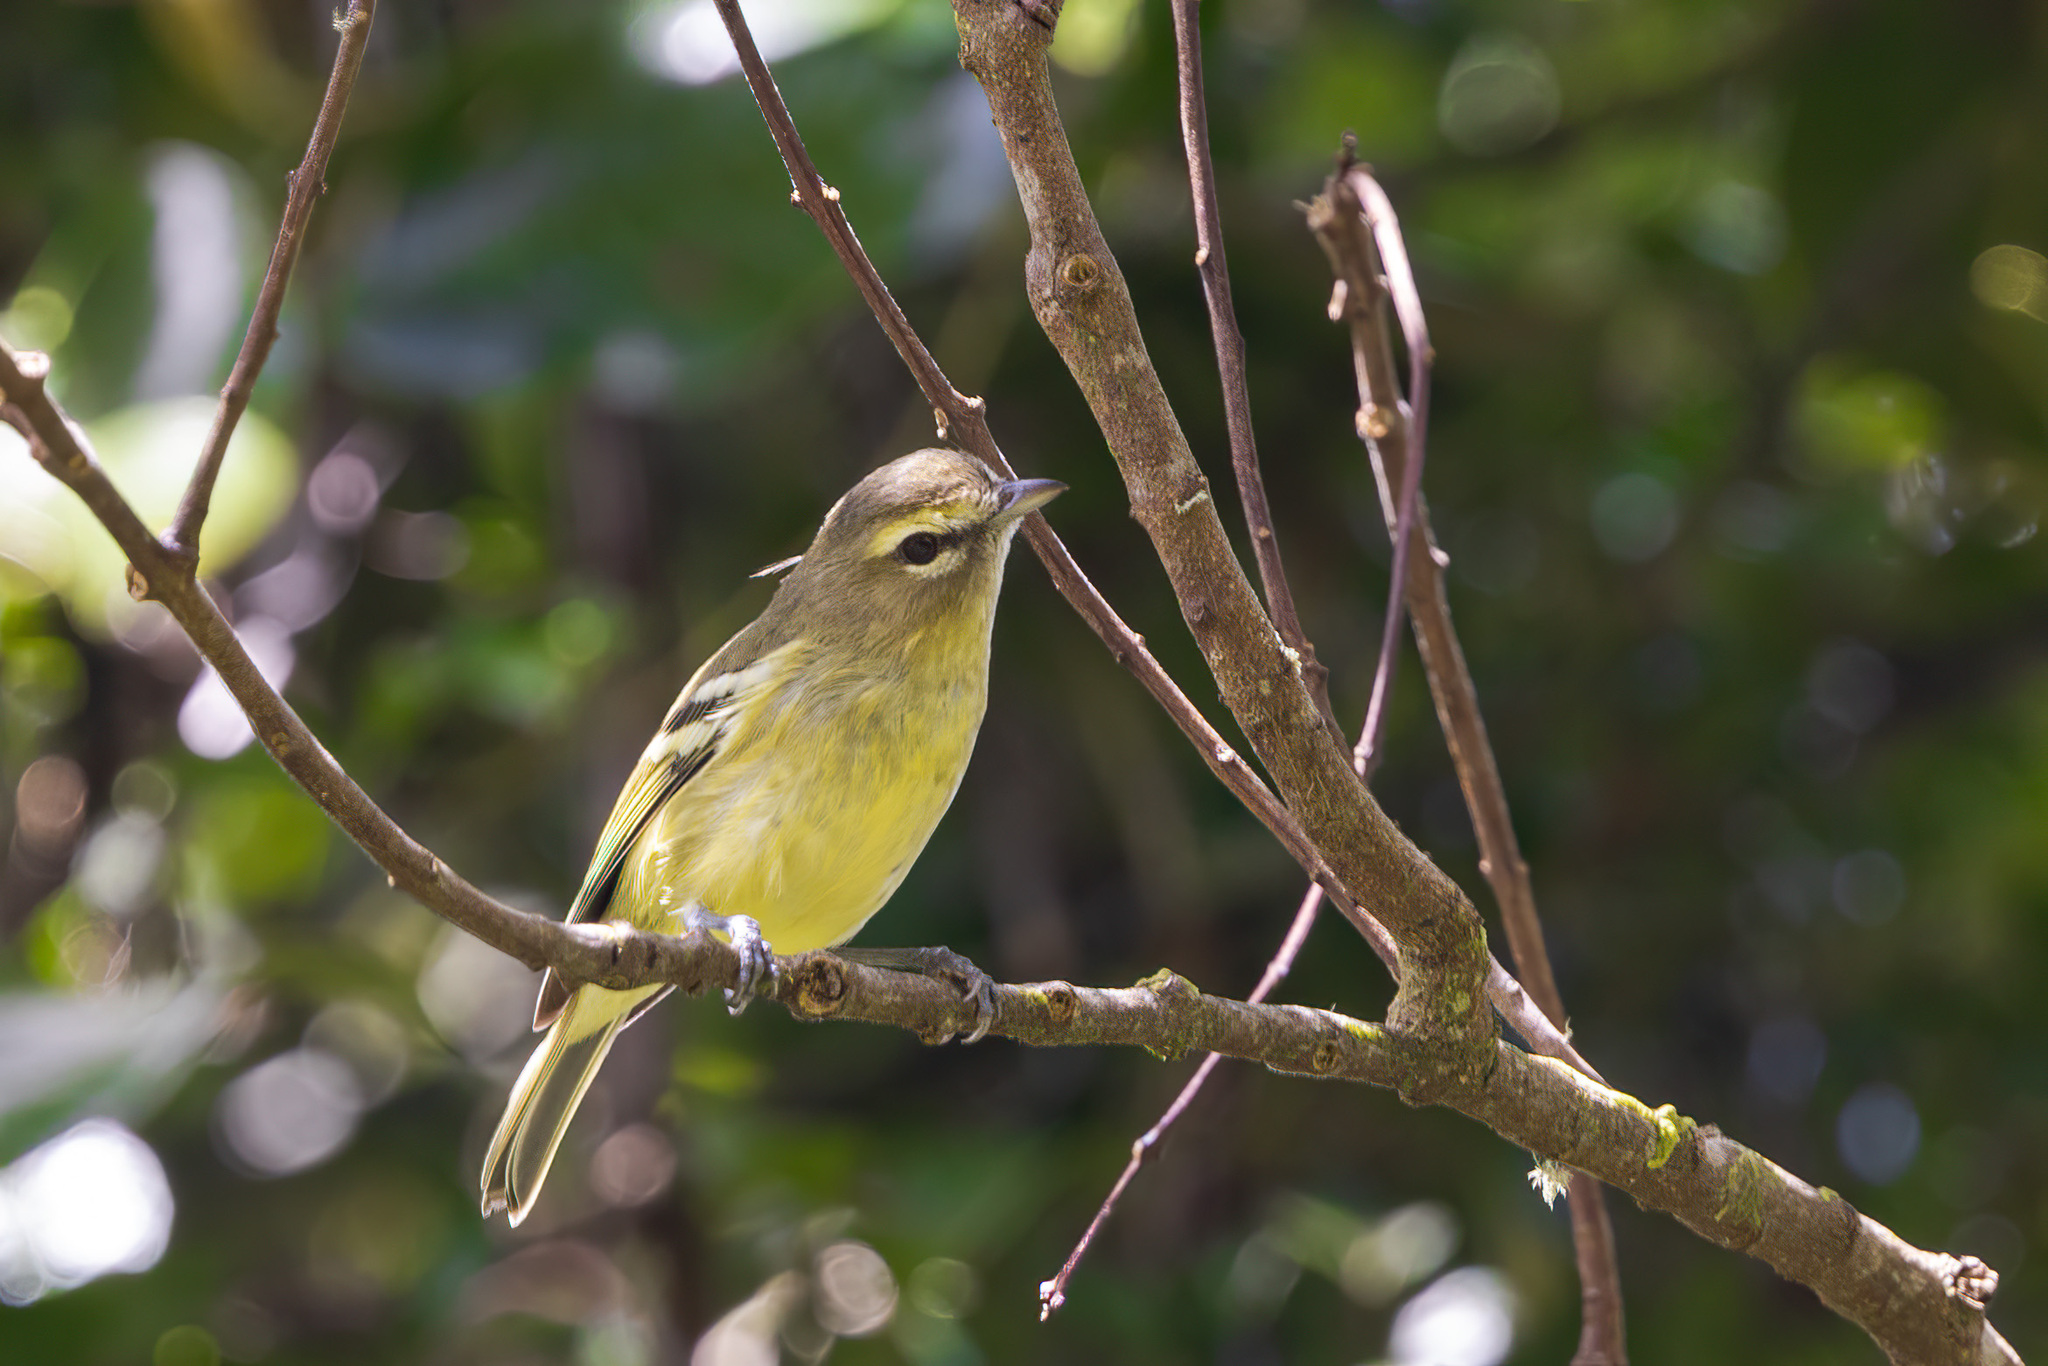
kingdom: Animalia
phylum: Chordata
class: Aves
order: Passeriformes
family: Vireonidae
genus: Vireo
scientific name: Vireo carmioli
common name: Yellow-winged vireo
